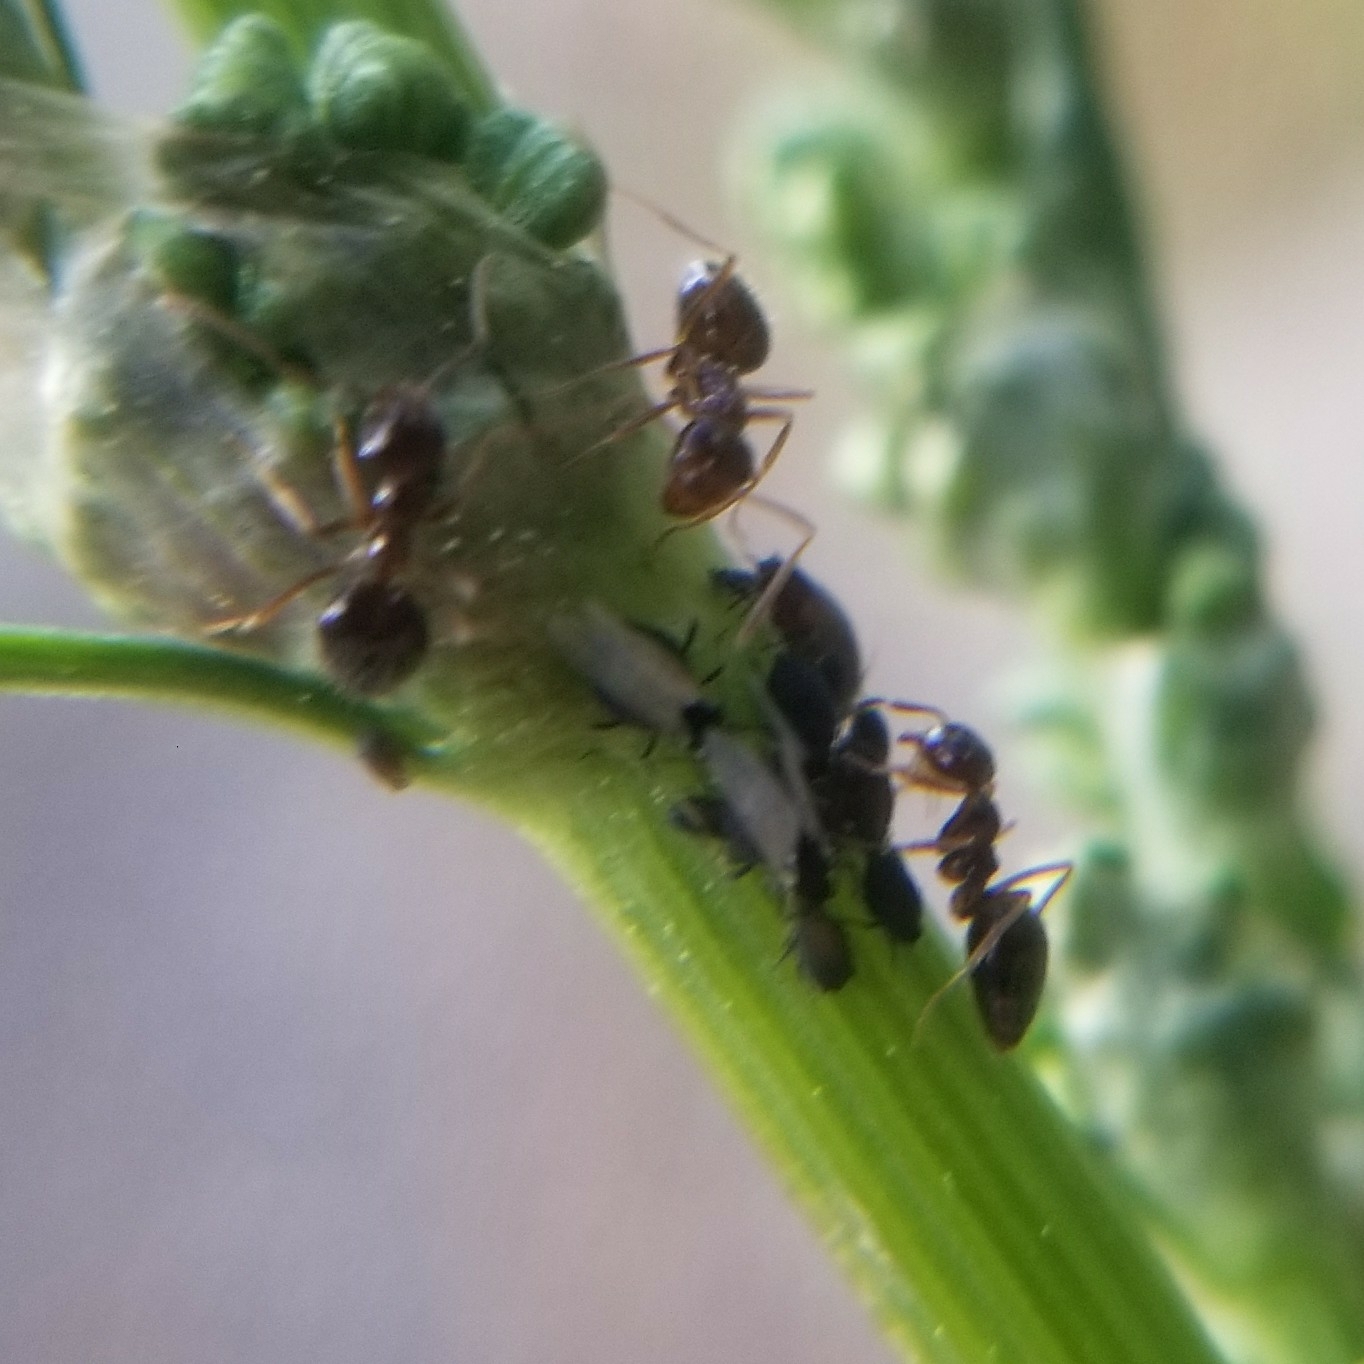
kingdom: Animalia
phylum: Arthropoda
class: Insecta
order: Hymenoptera
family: Formicidae
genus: Prenolepis
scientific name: Prenolepis imparis
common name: Small honey ant
